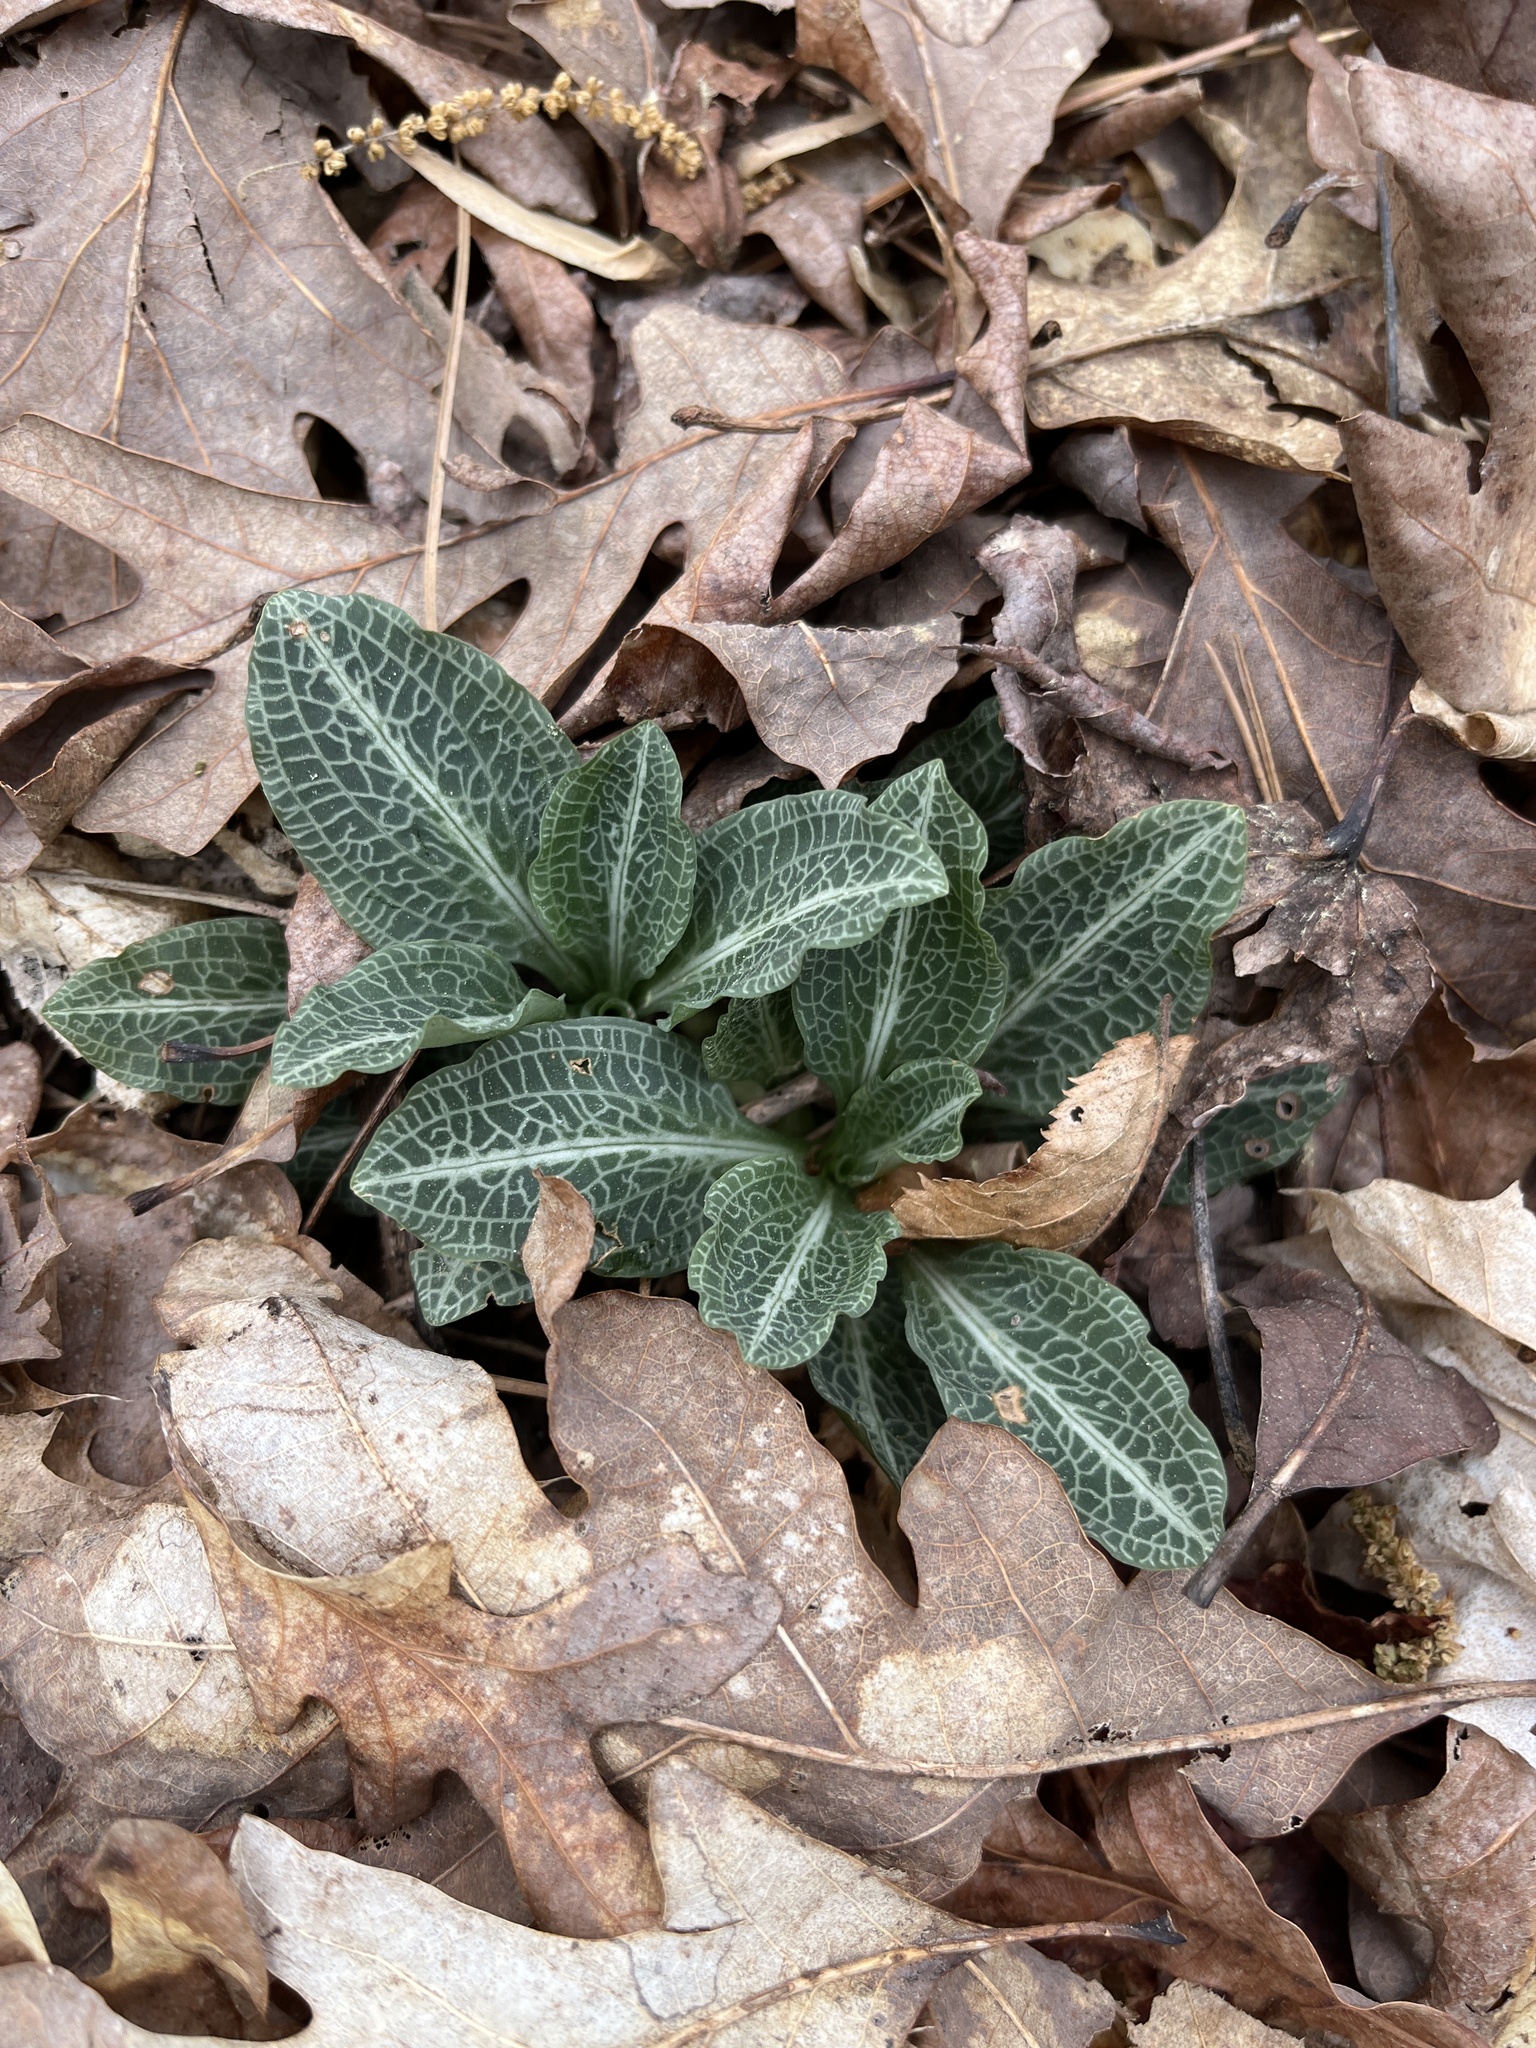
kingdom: Plantae
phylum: Tracheophyta
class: Liliopsida
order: Asparagales
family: Orchidaceae
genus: Goodyera
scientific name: Goodyera pubescens
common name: Downy rattlesnake-plantain
